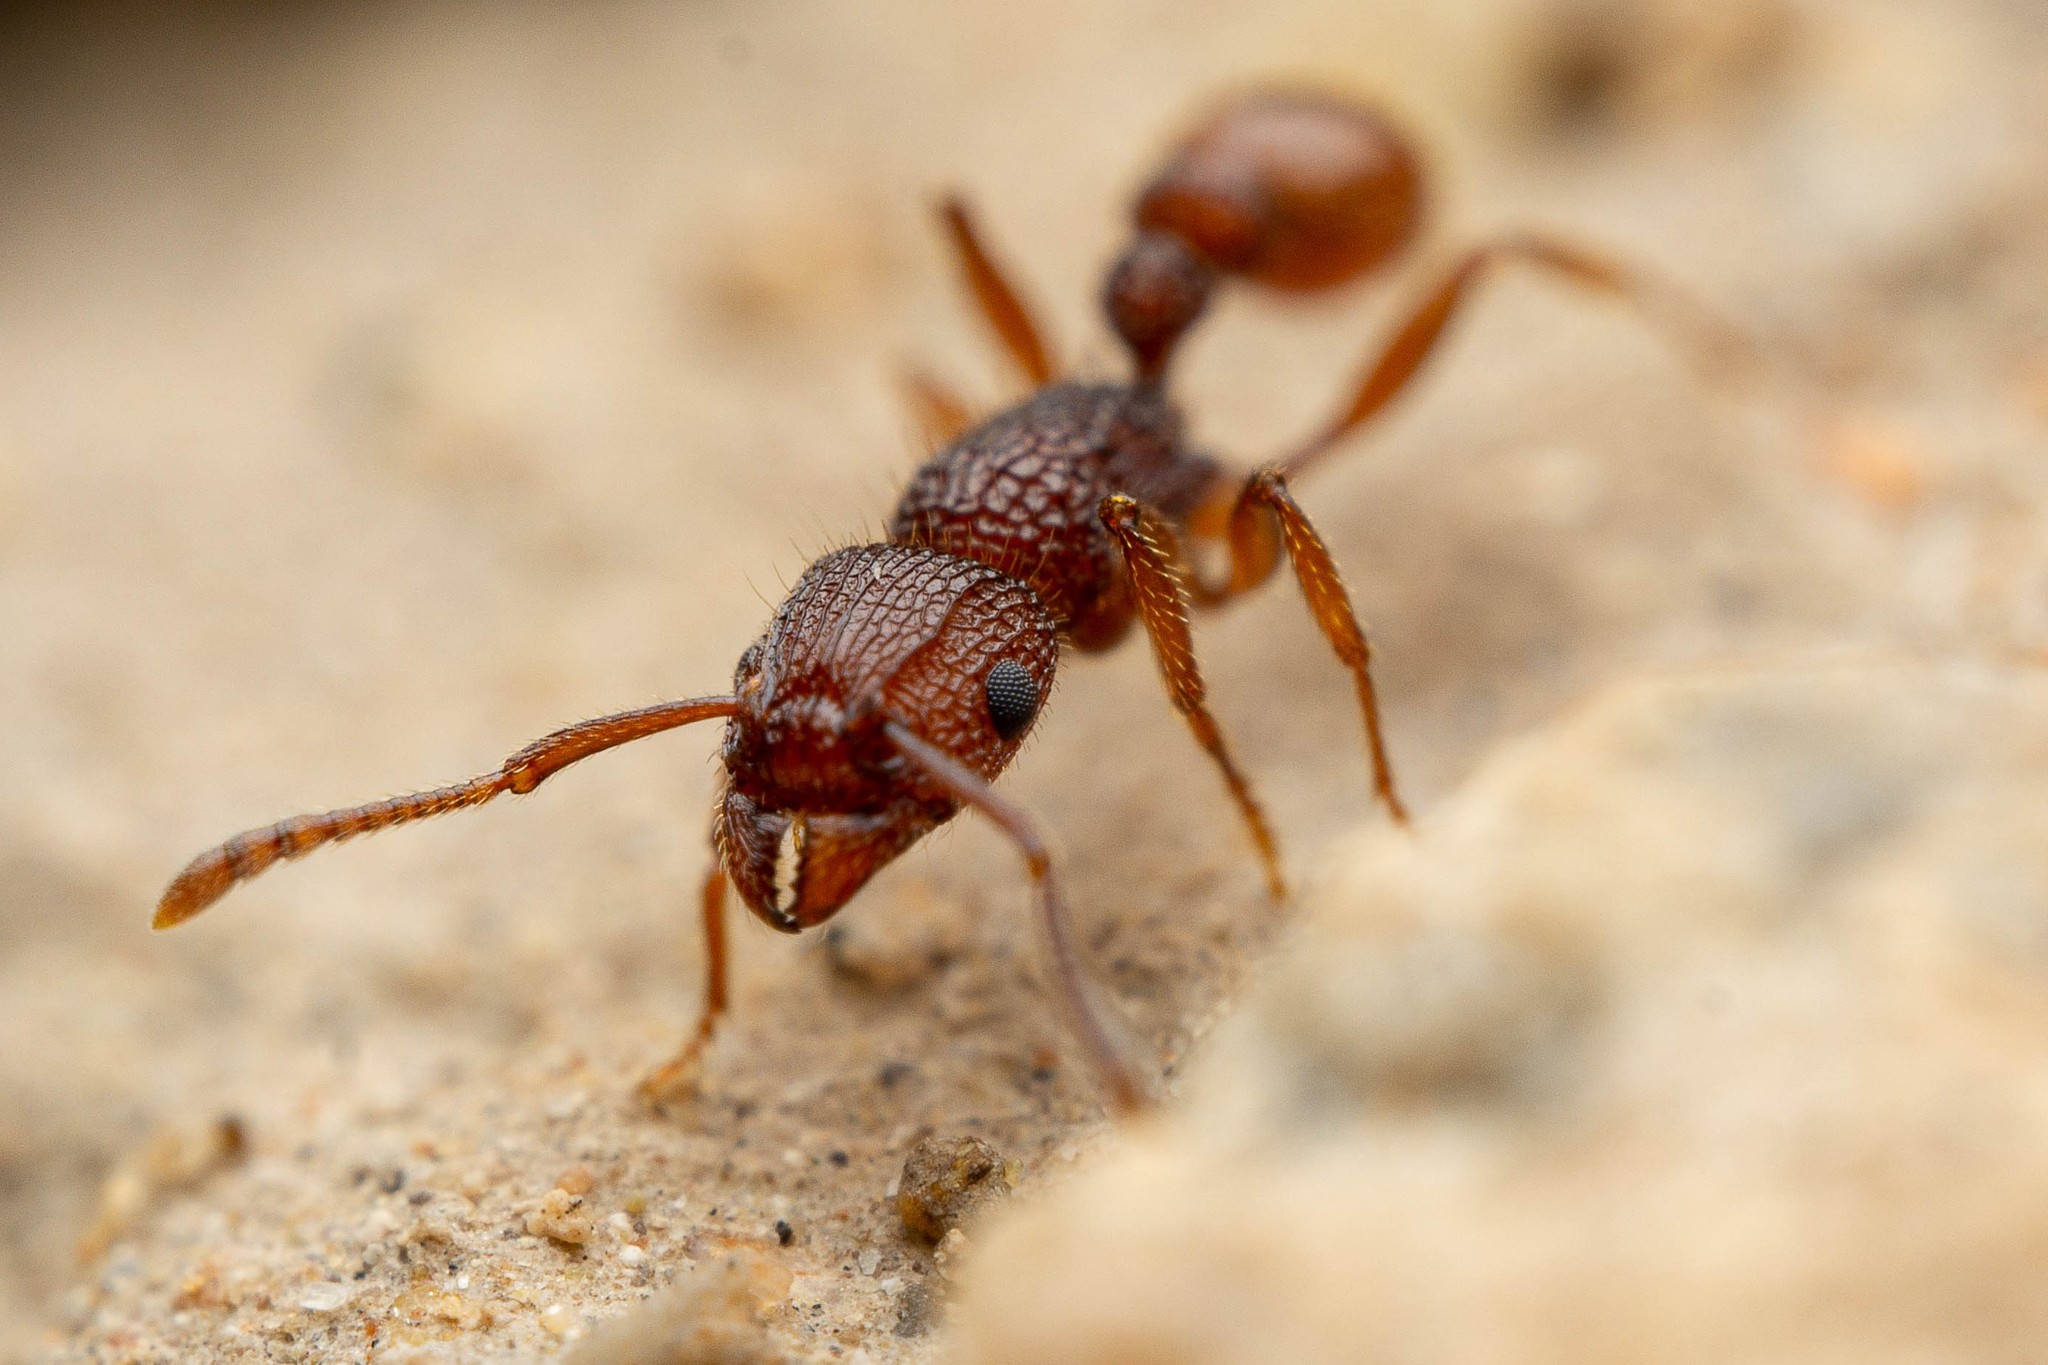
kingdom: Animalia
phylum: Arthropoda
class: Insecta
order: Hymenoptera
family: Formicidae
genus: Tetramorium
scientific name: Tetramorium hispidum
